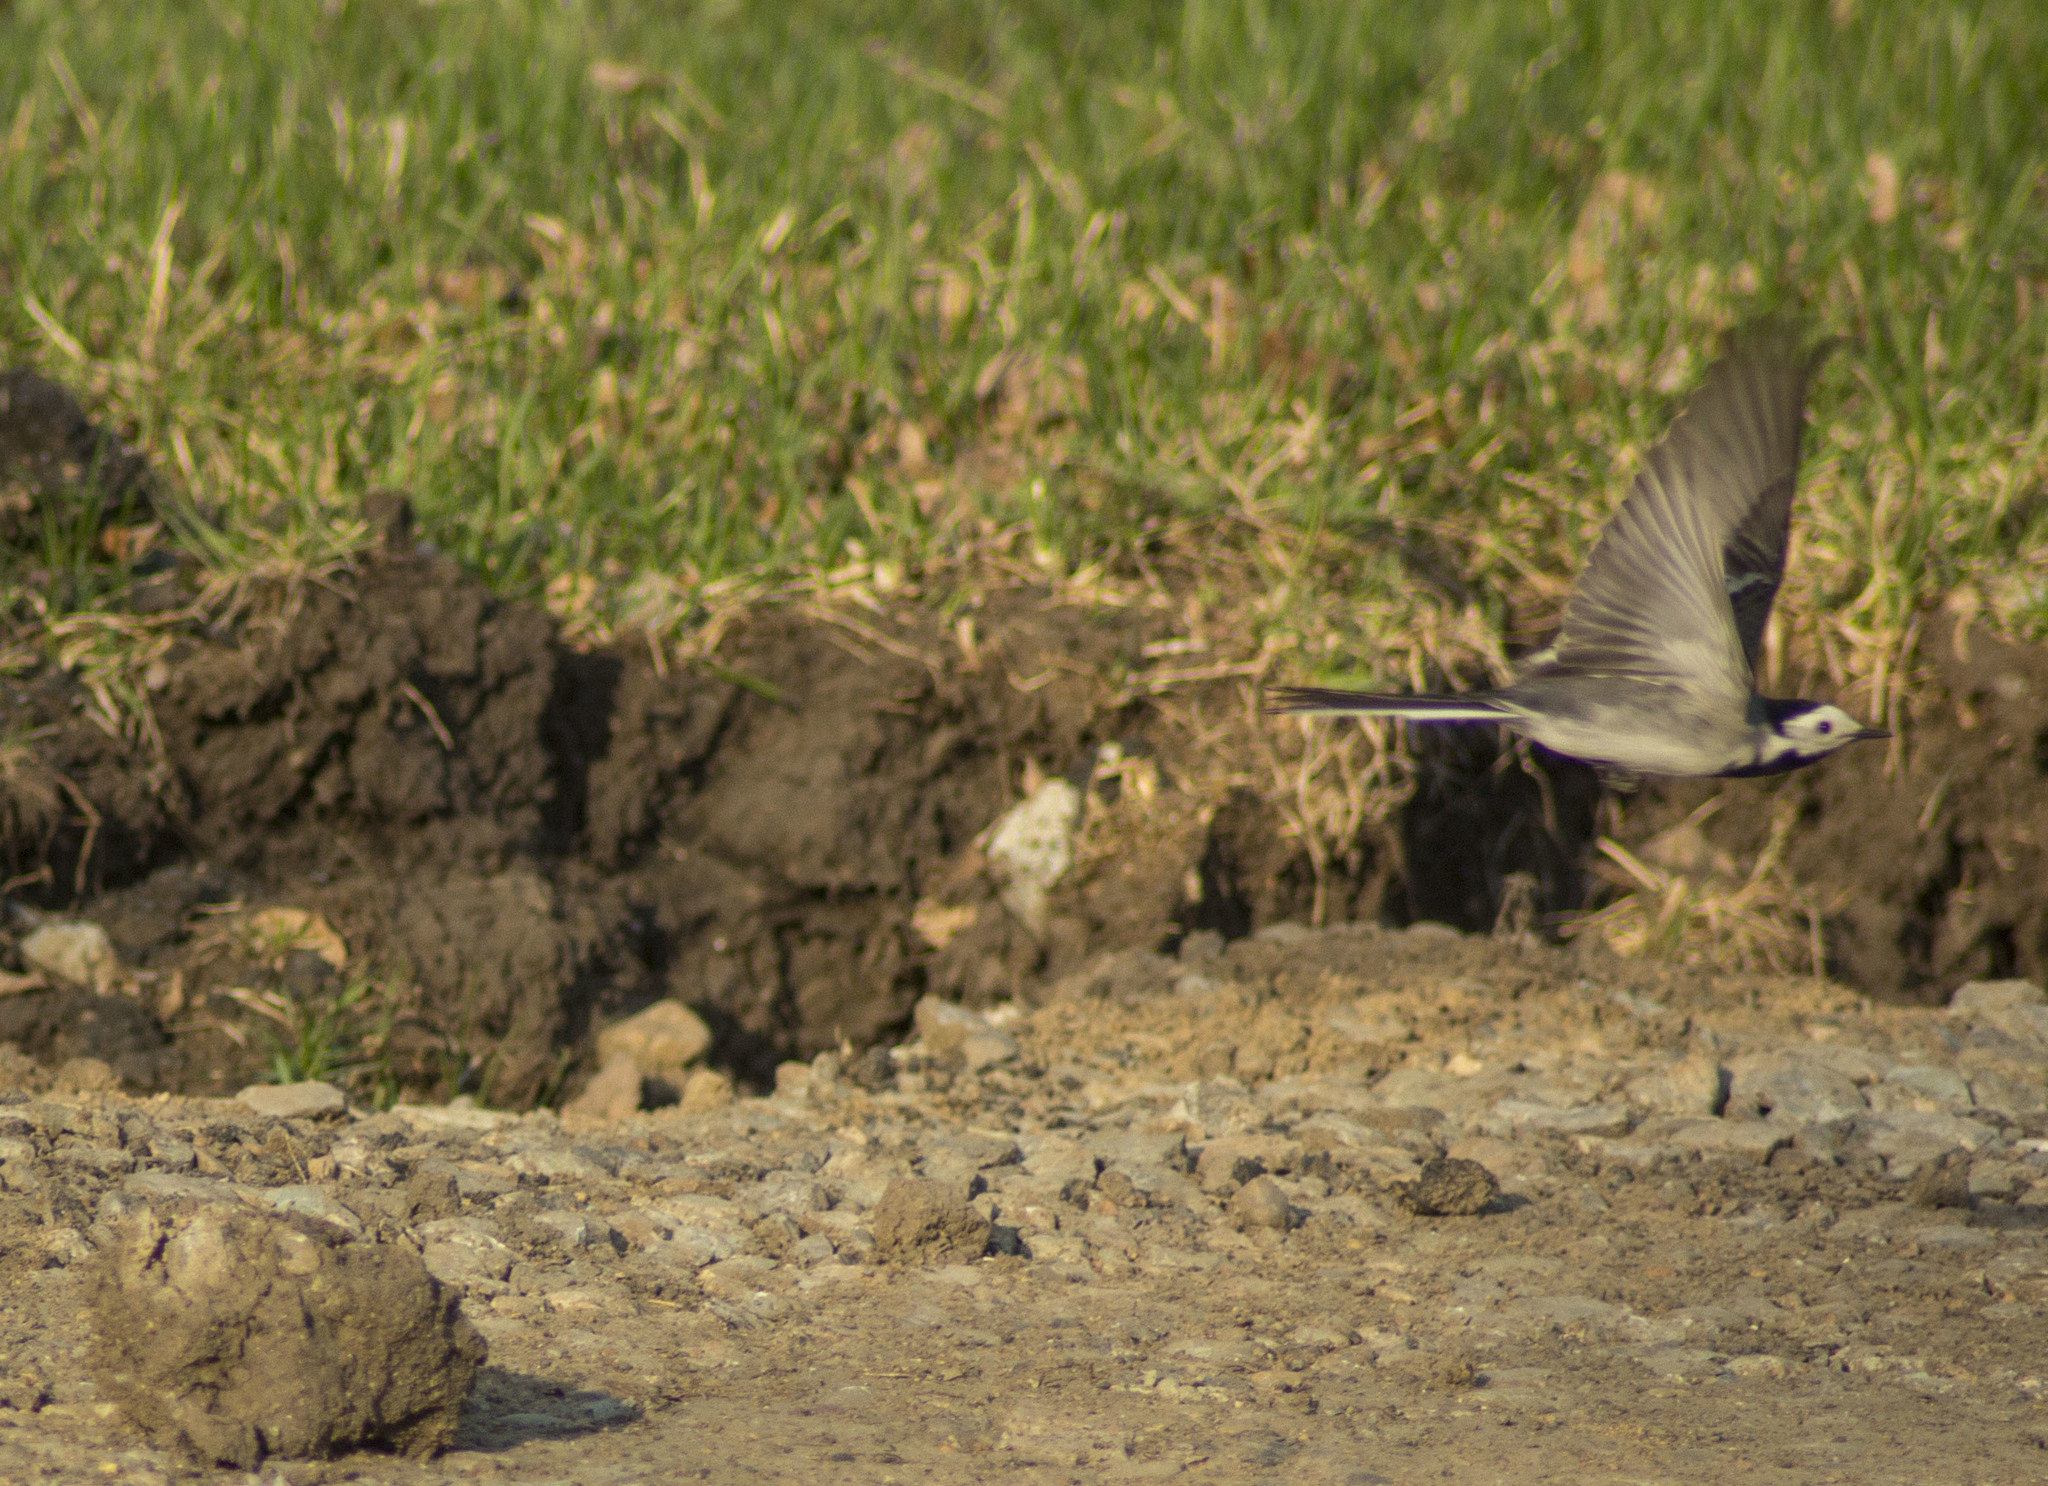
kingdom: Animalia
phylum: Chordata
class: Aves
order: Passeriformes
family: Motacillidae
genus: Motacilla
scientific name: Motacilla alba
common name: White wagtail
